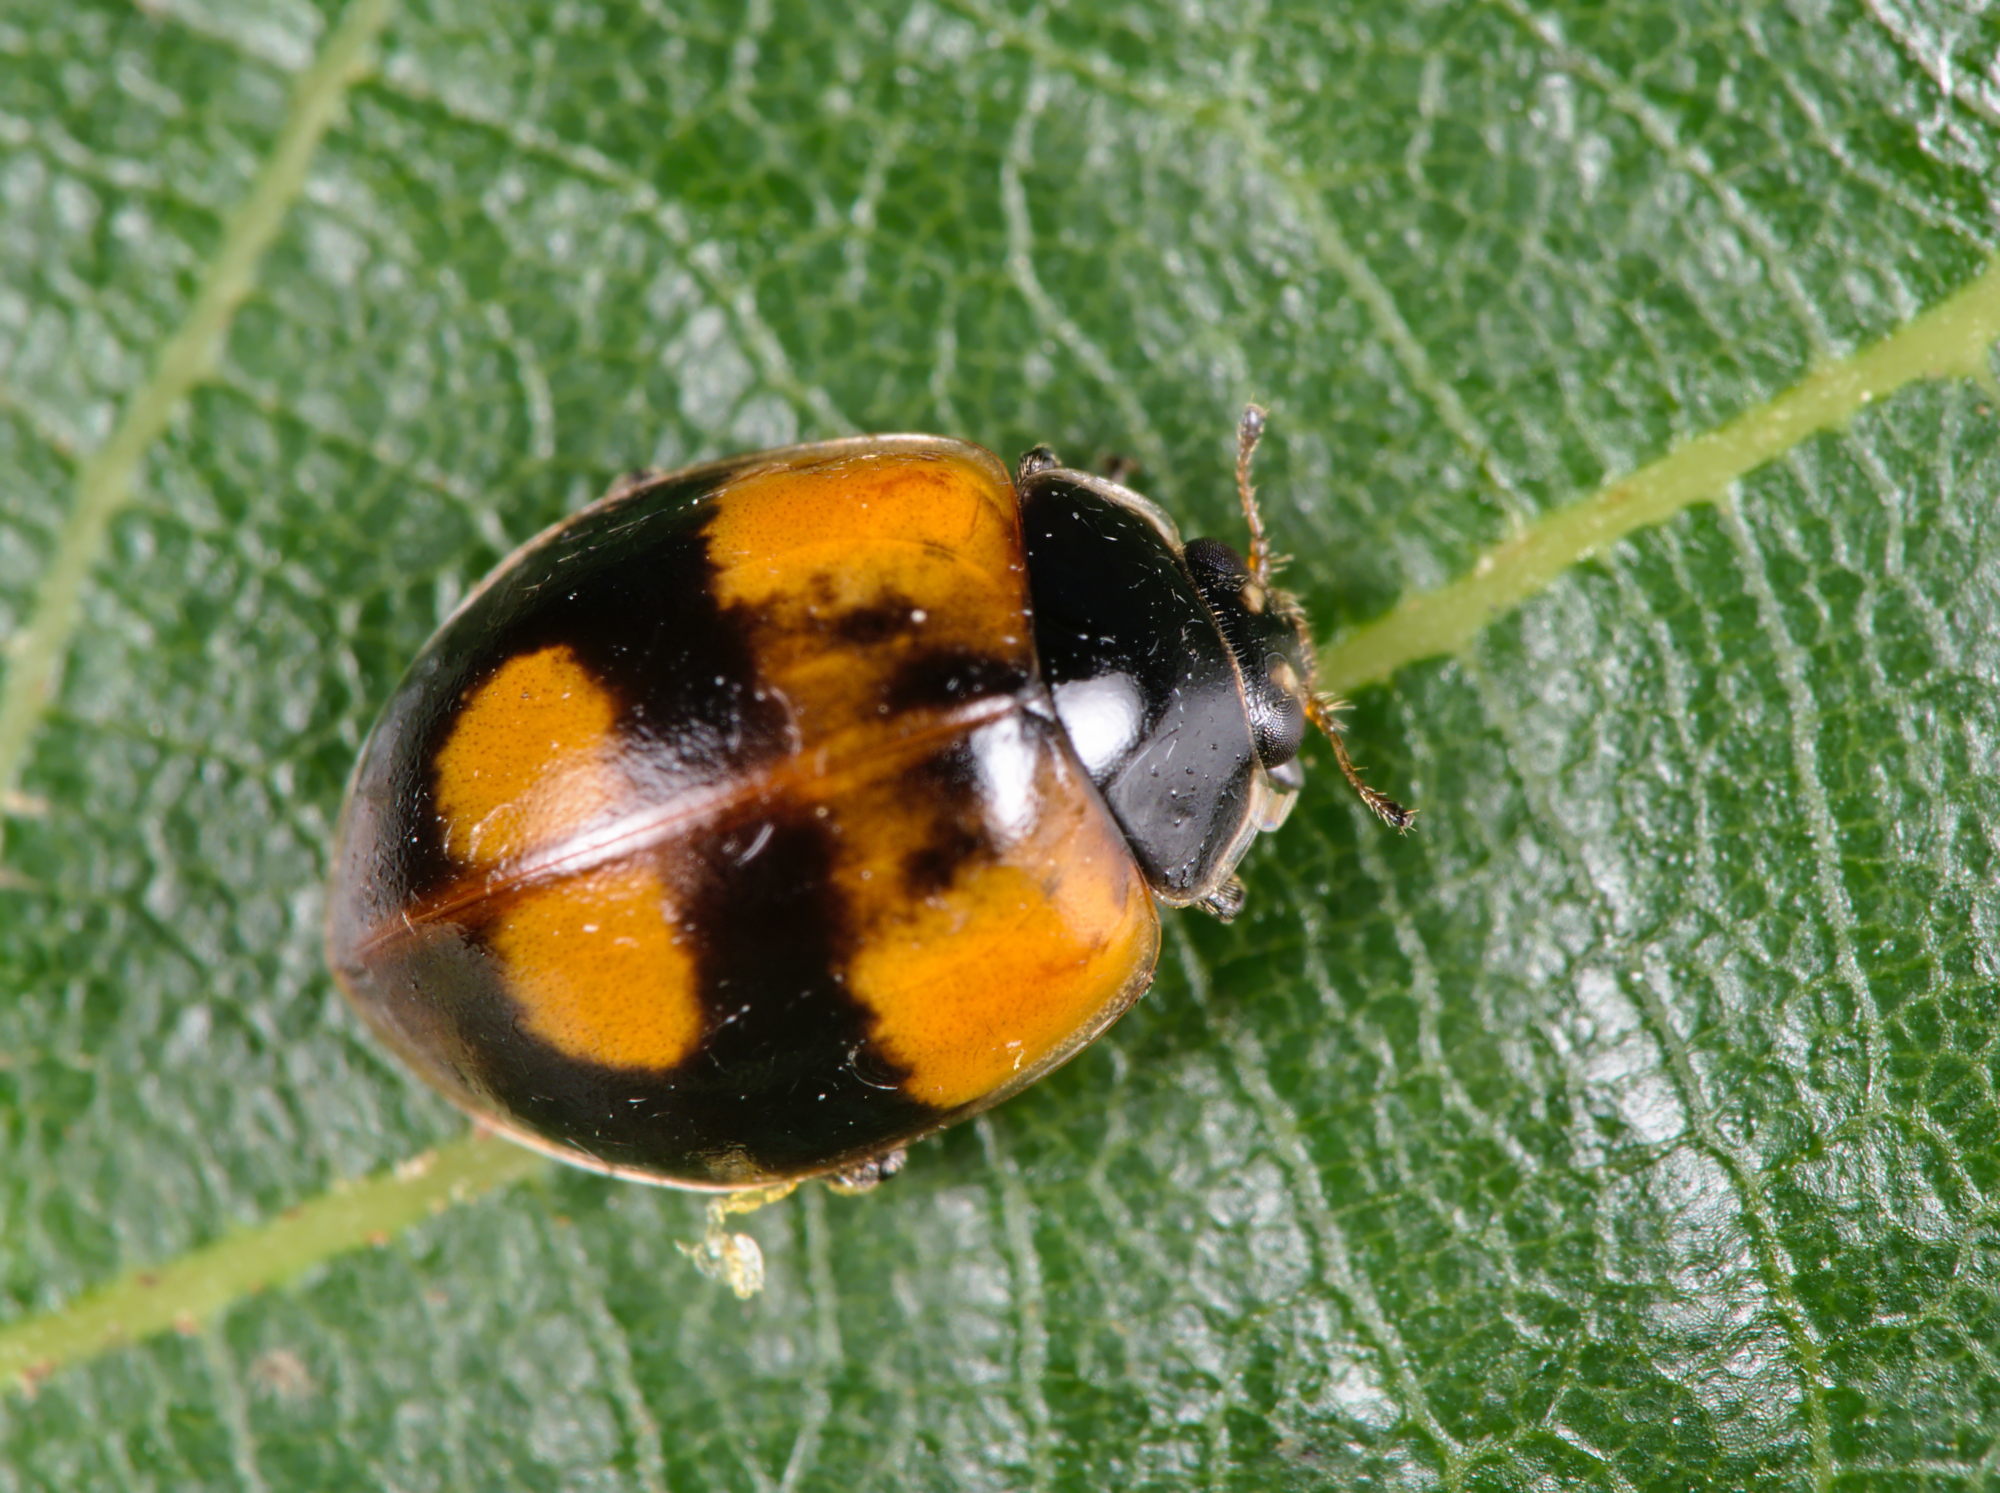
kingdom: Animalia
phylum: Arthropoda
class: Insecta
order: Coleoptera
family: Coccinellidae
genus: Adalia
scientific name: Adalia bipunctata
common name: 2-spot ladybird
